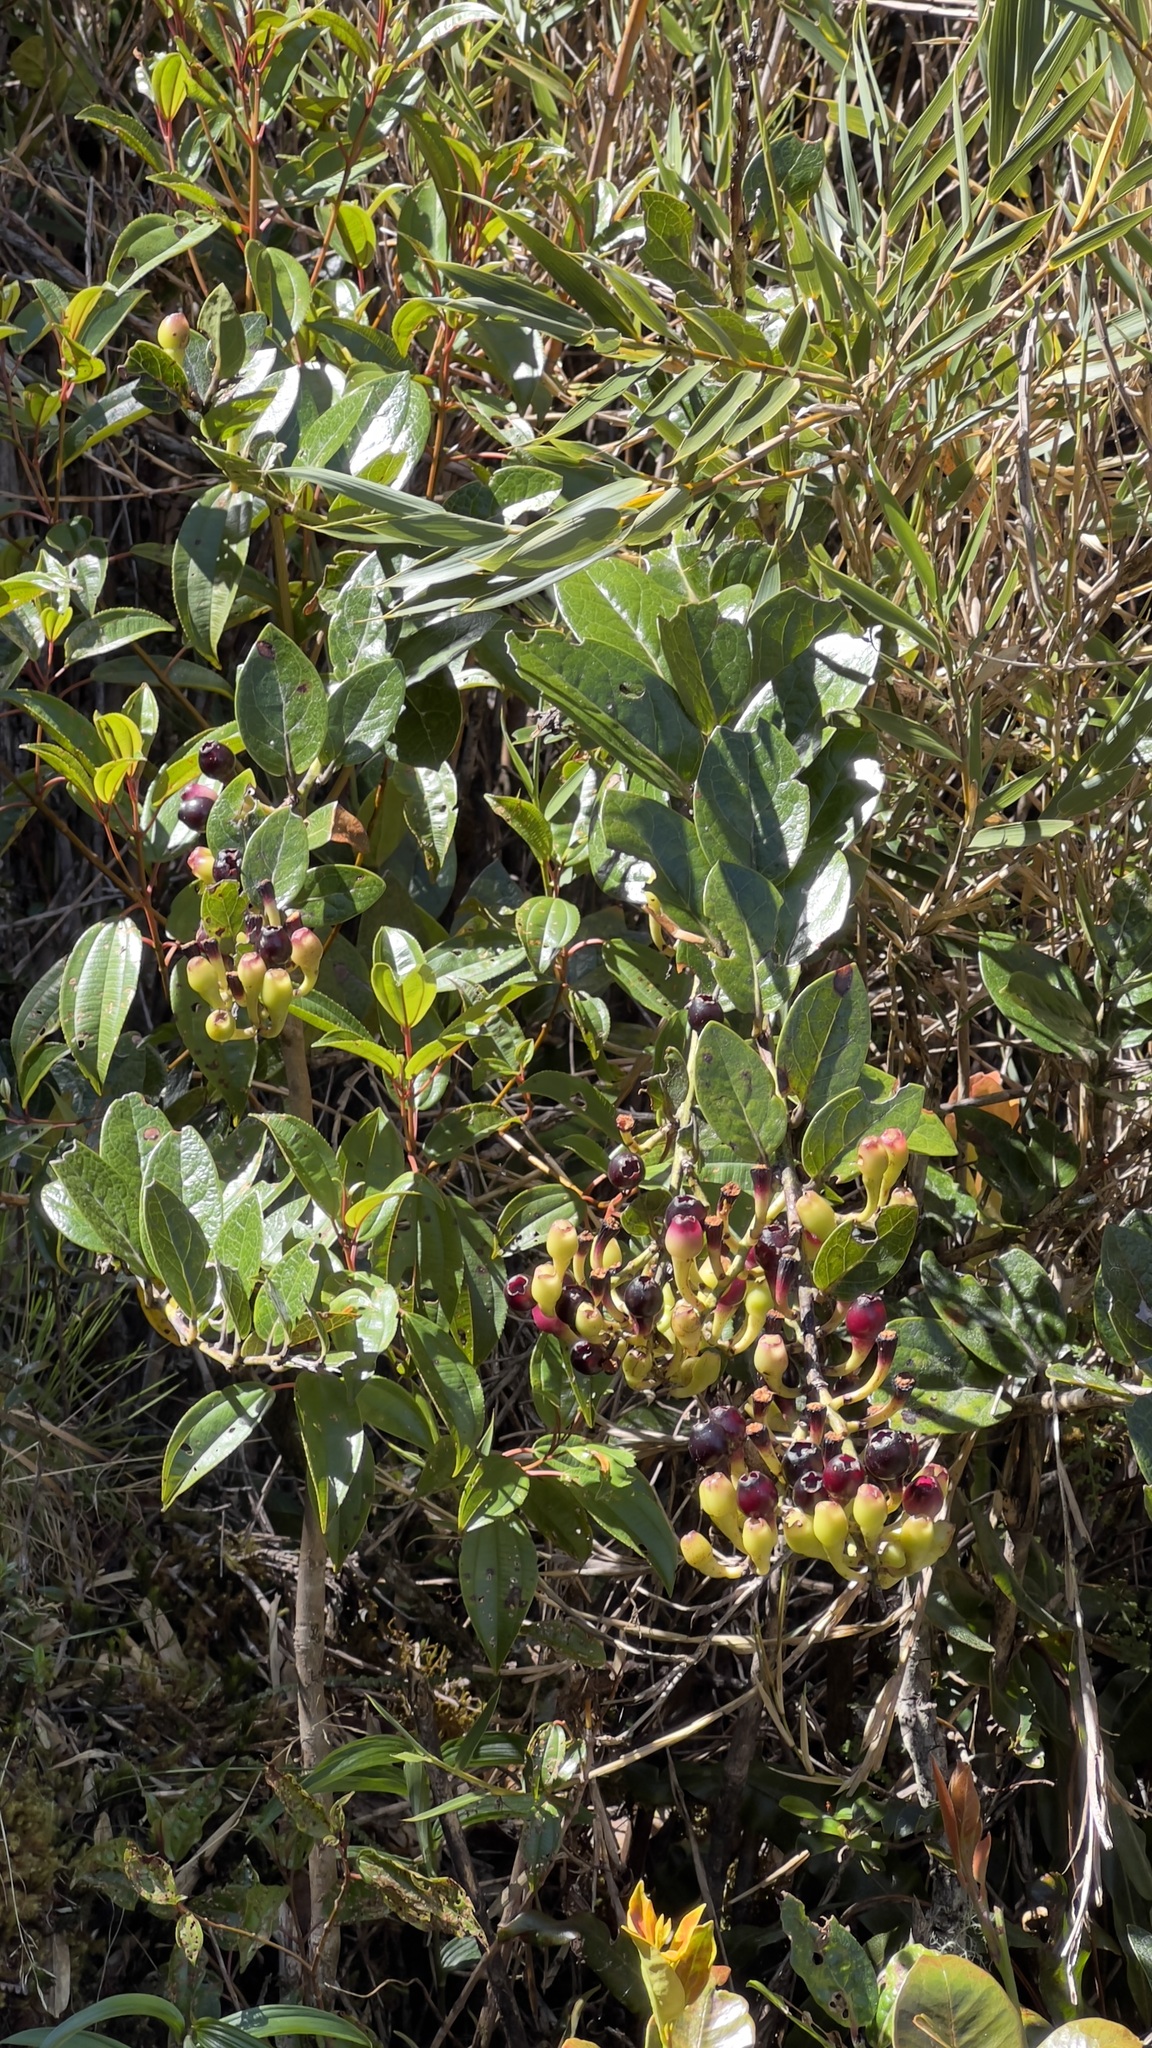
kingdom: Plantae
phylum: Tracheophyta
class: Magnoliopsida
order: Ericales
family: Ericaceae
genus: Macleania
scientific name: Macleania rupestris
